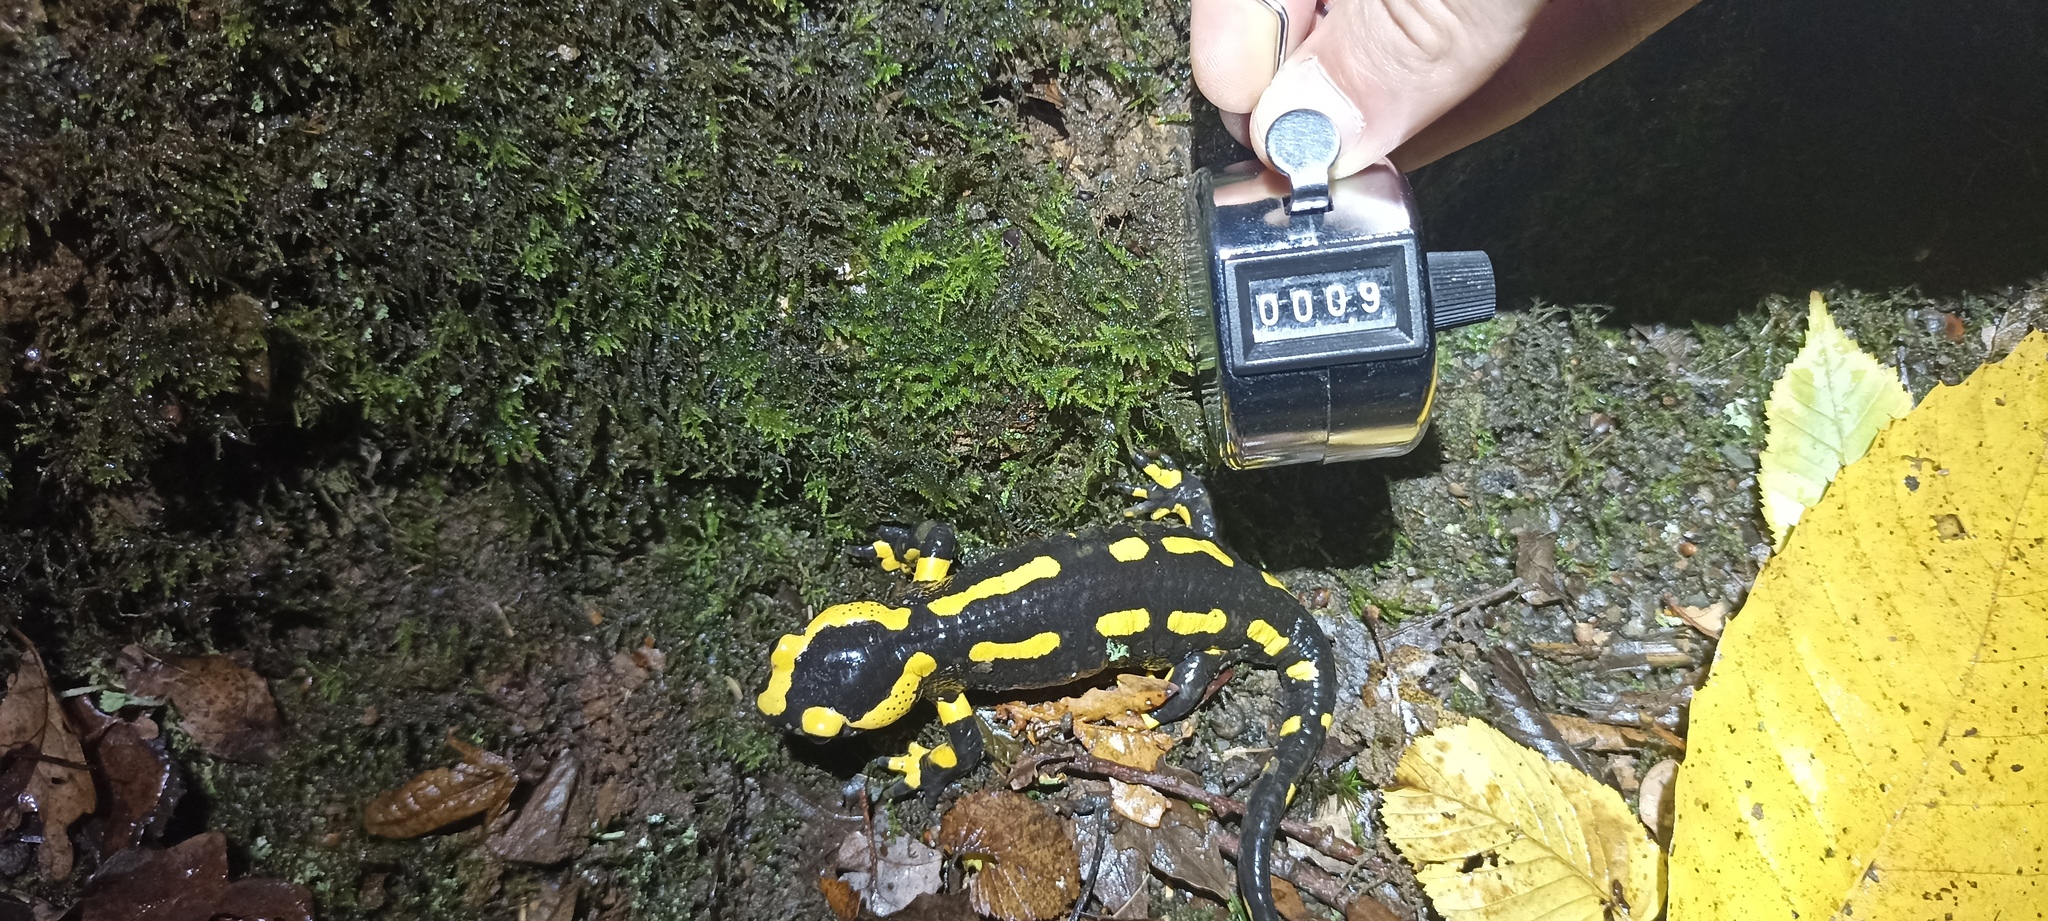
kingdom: Animalia
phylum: Chordata
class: Amphibia
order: Caudata
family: Salamandridae
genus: Salamandra
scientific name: Salamandra salamandra
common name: Fire salamander
